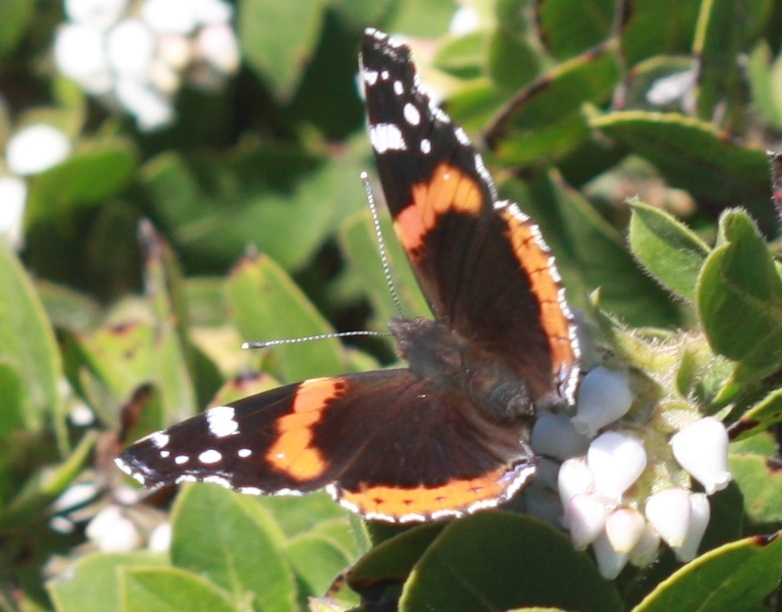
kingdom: Animalia
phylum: Arthropoda
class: Insecta
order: Lepidoptera
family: Nymphalidae
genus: Vanessa
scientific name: Vanessa atalanta
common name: Red admiral
